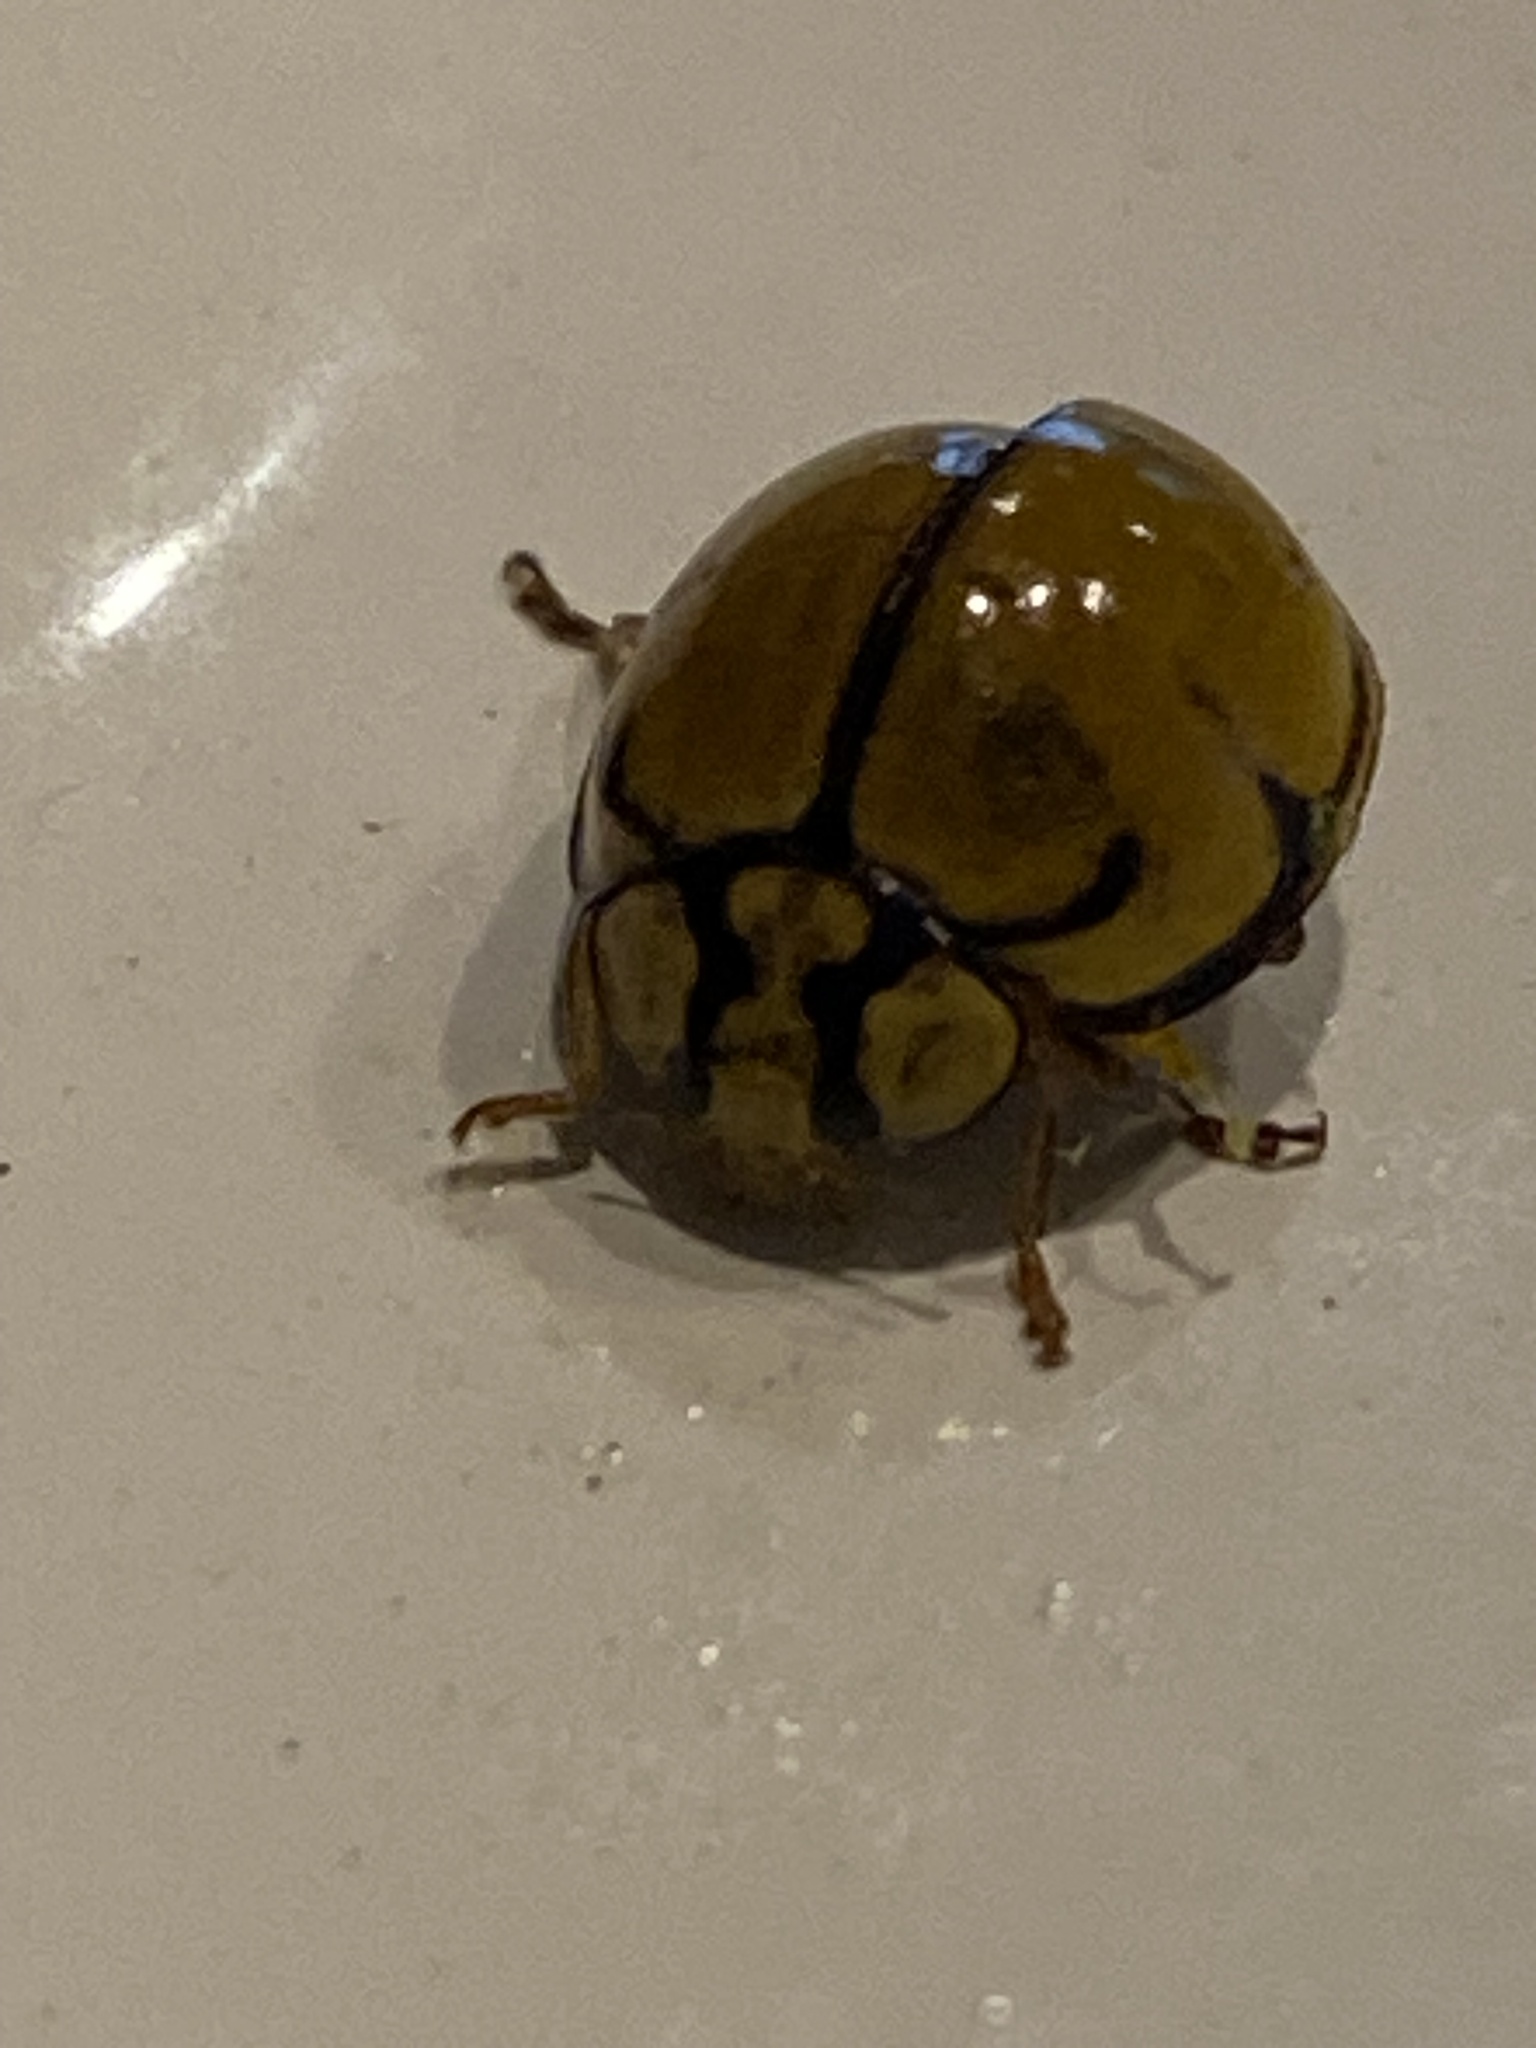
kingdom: Animalia
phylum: Arthropoda
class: Insecta
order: Coleoptera
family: Coccinellidae
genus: Harmonia
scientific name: Harmonia
